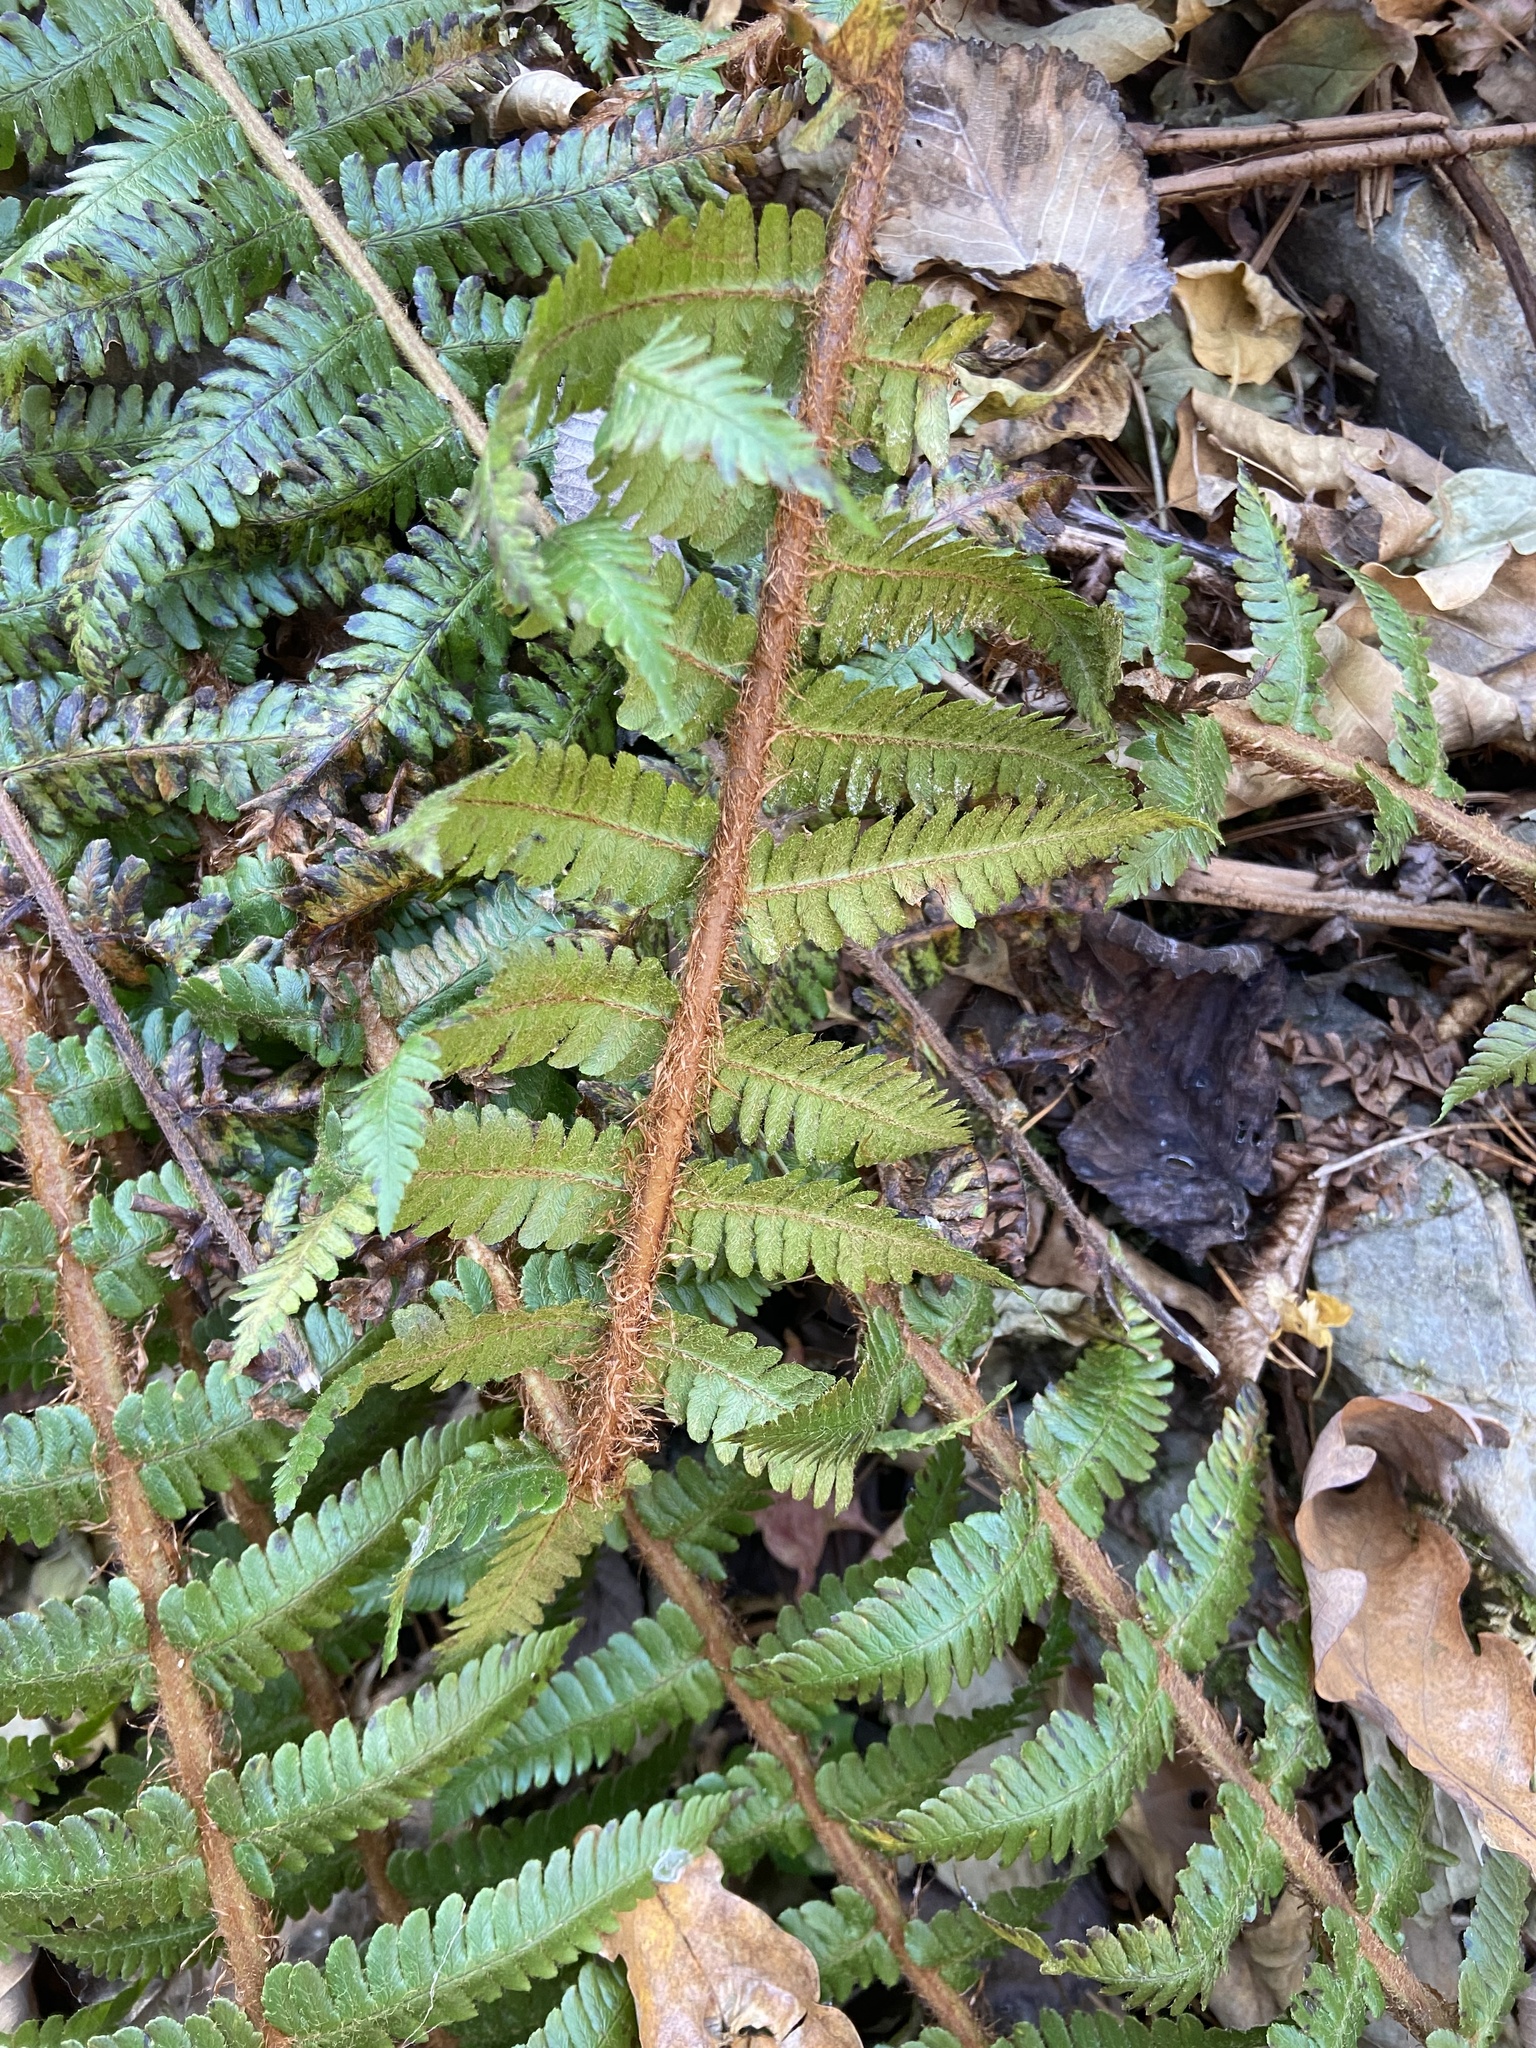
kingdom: Plantae
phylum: Tracheophyta
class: Polypodiopsida
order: Polypodiales
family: Dryopteridaceae
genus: Dryopteris
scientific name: Dryopteris crassirhizoma
